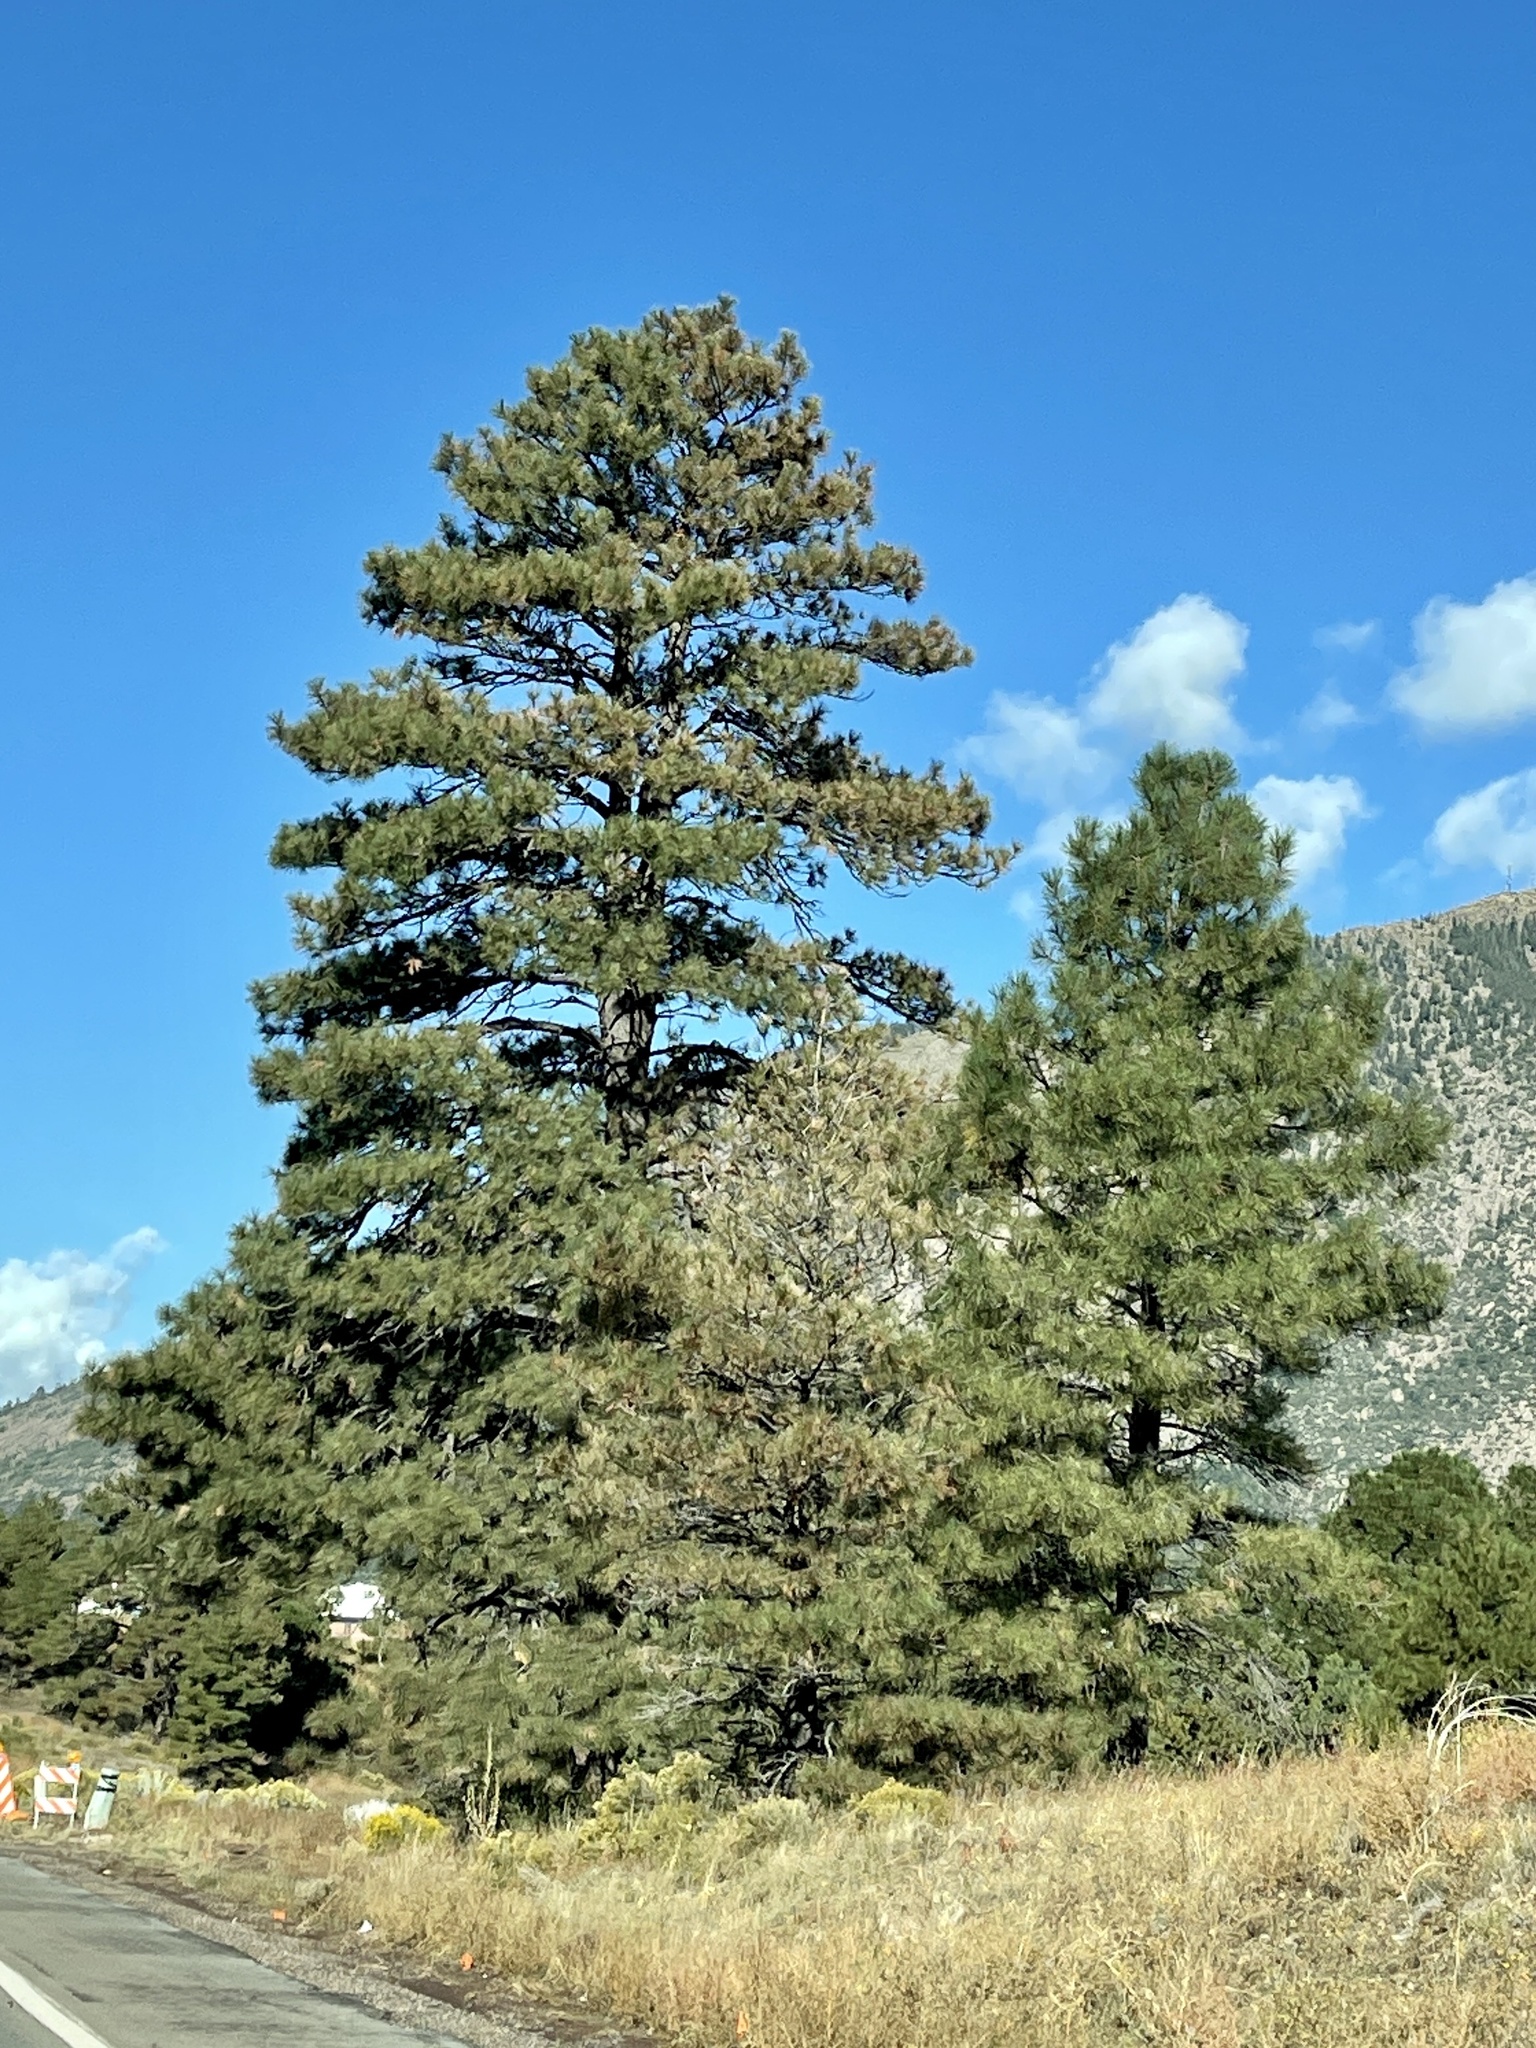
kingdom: Plantae
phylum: Tracheophyta
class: Pinopsida
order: Pinales
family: Pinaceae
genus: Pinus
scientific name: Pinus ponderosa
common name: Western yellow-pine
